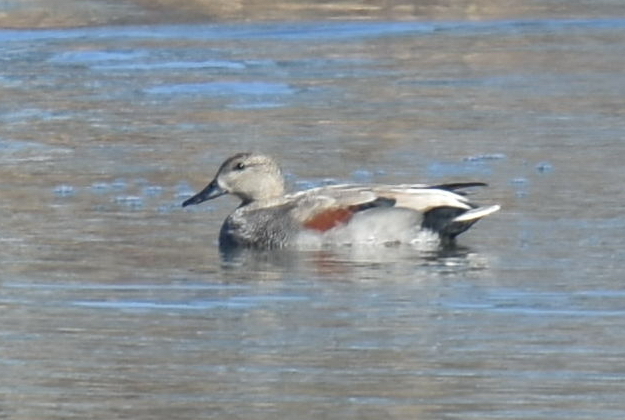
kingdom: Animalia
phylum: Chordata
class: Aves
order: Anseriformes
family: Anatidae
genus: Mareca
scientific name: Mareca strepera
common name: Gadwall
